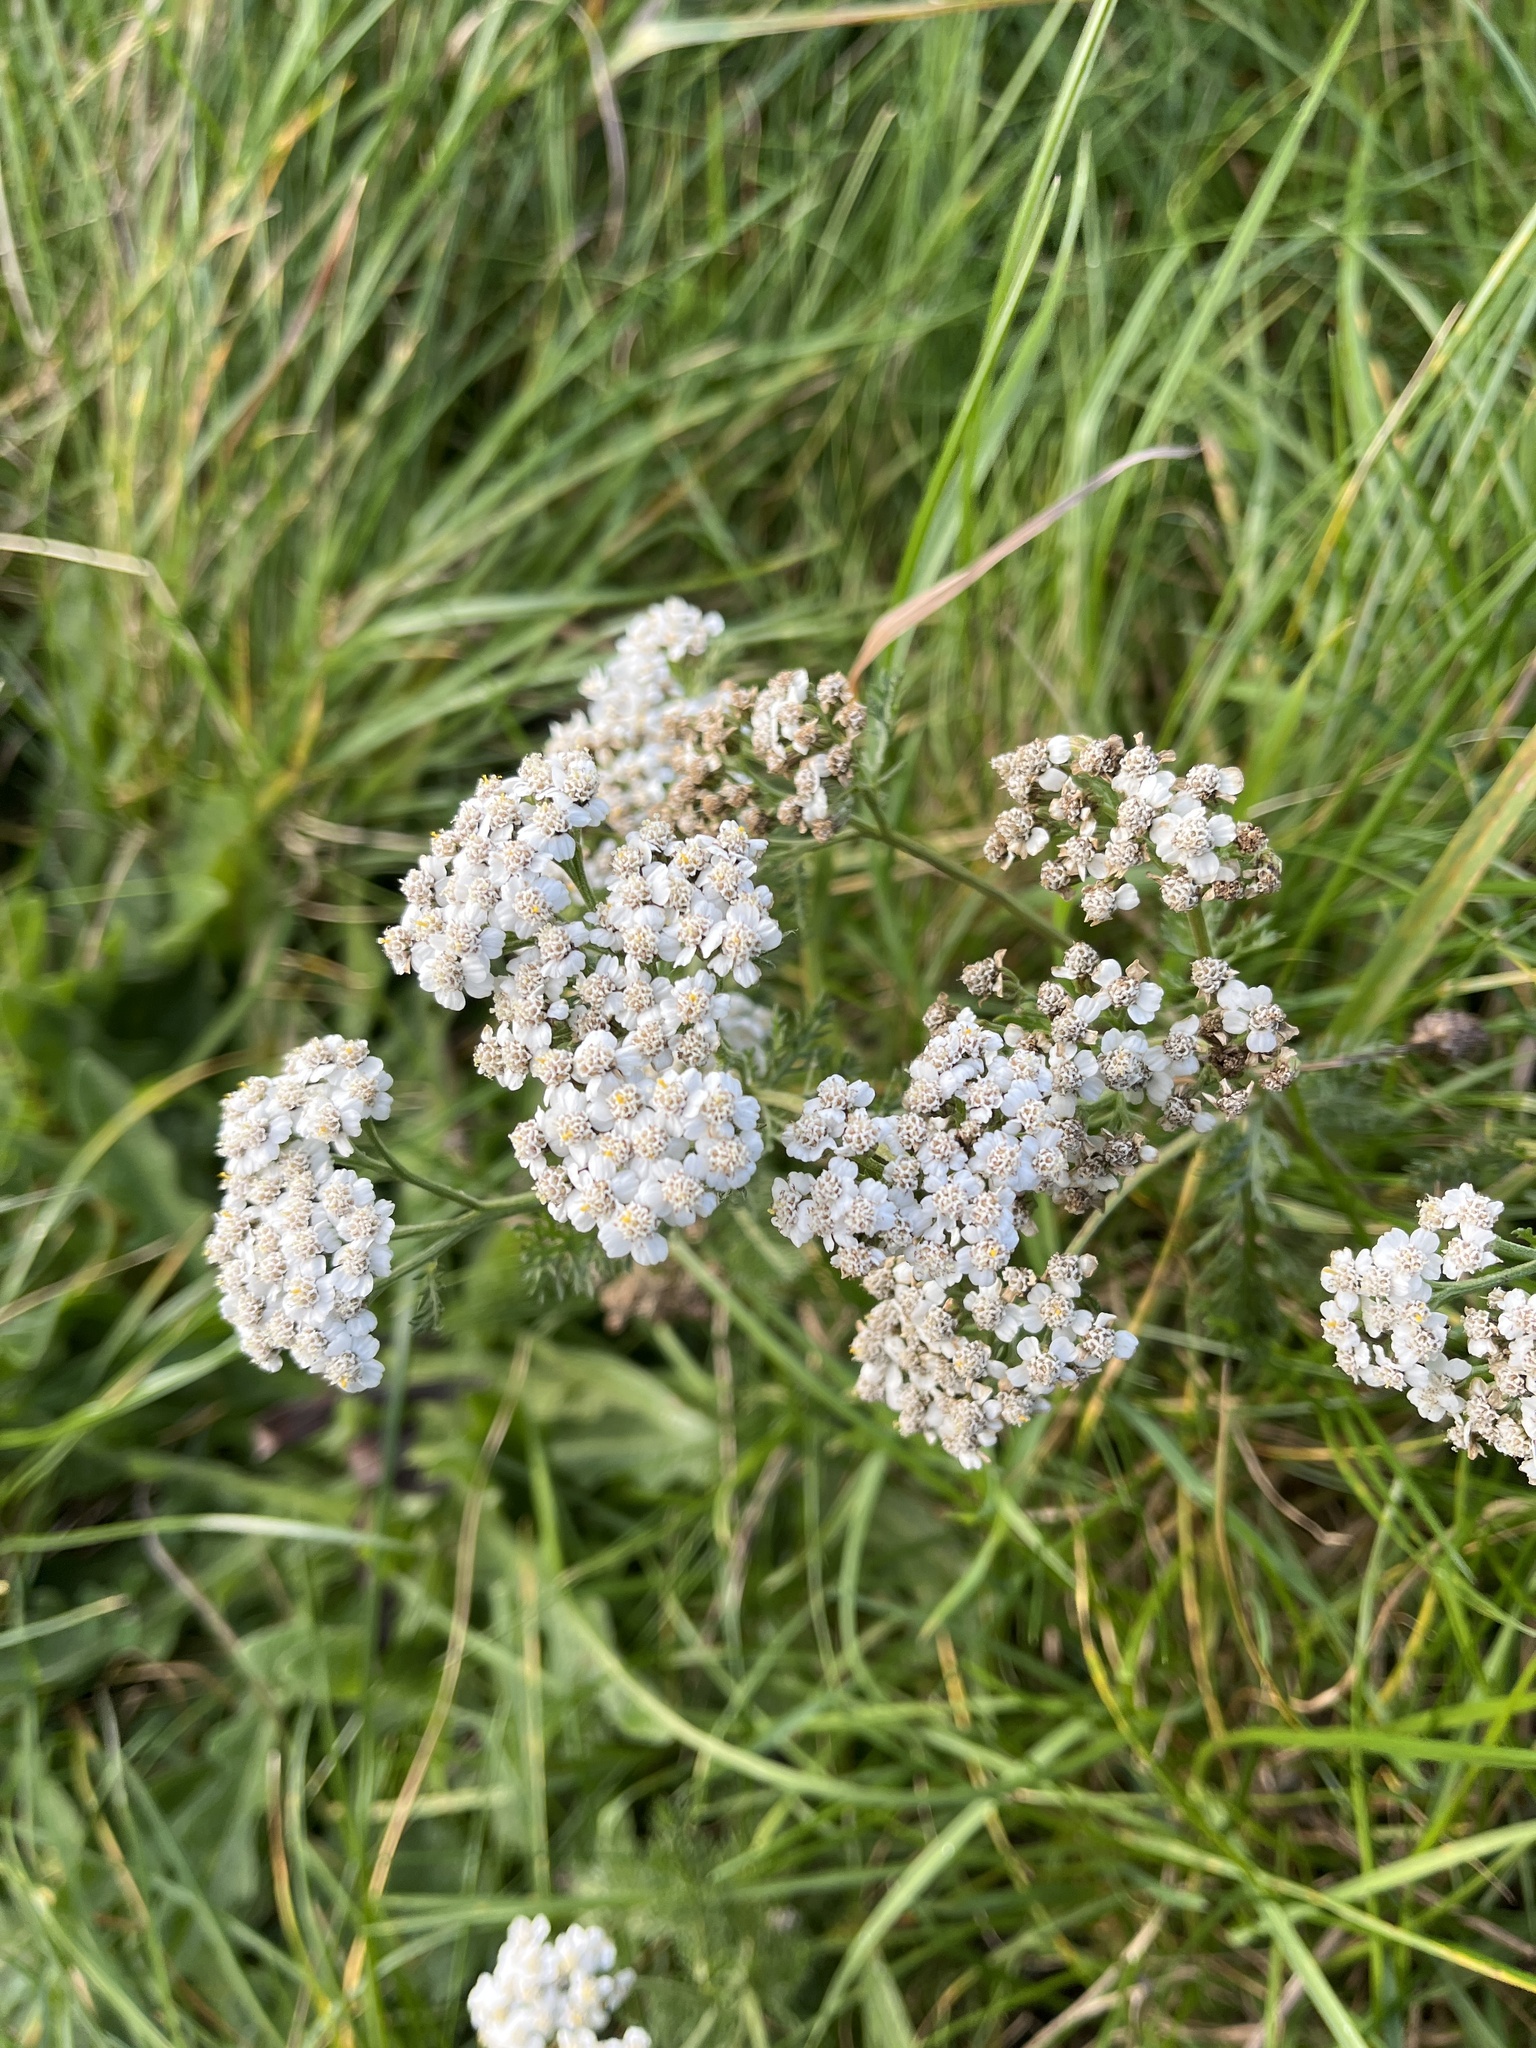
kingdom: Plantae
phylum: Tracheophyta
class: Magnoliopsida
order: Asterales
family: Asteraceae
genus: Achillea
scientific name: Achillea millefolium
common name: Yarrow
